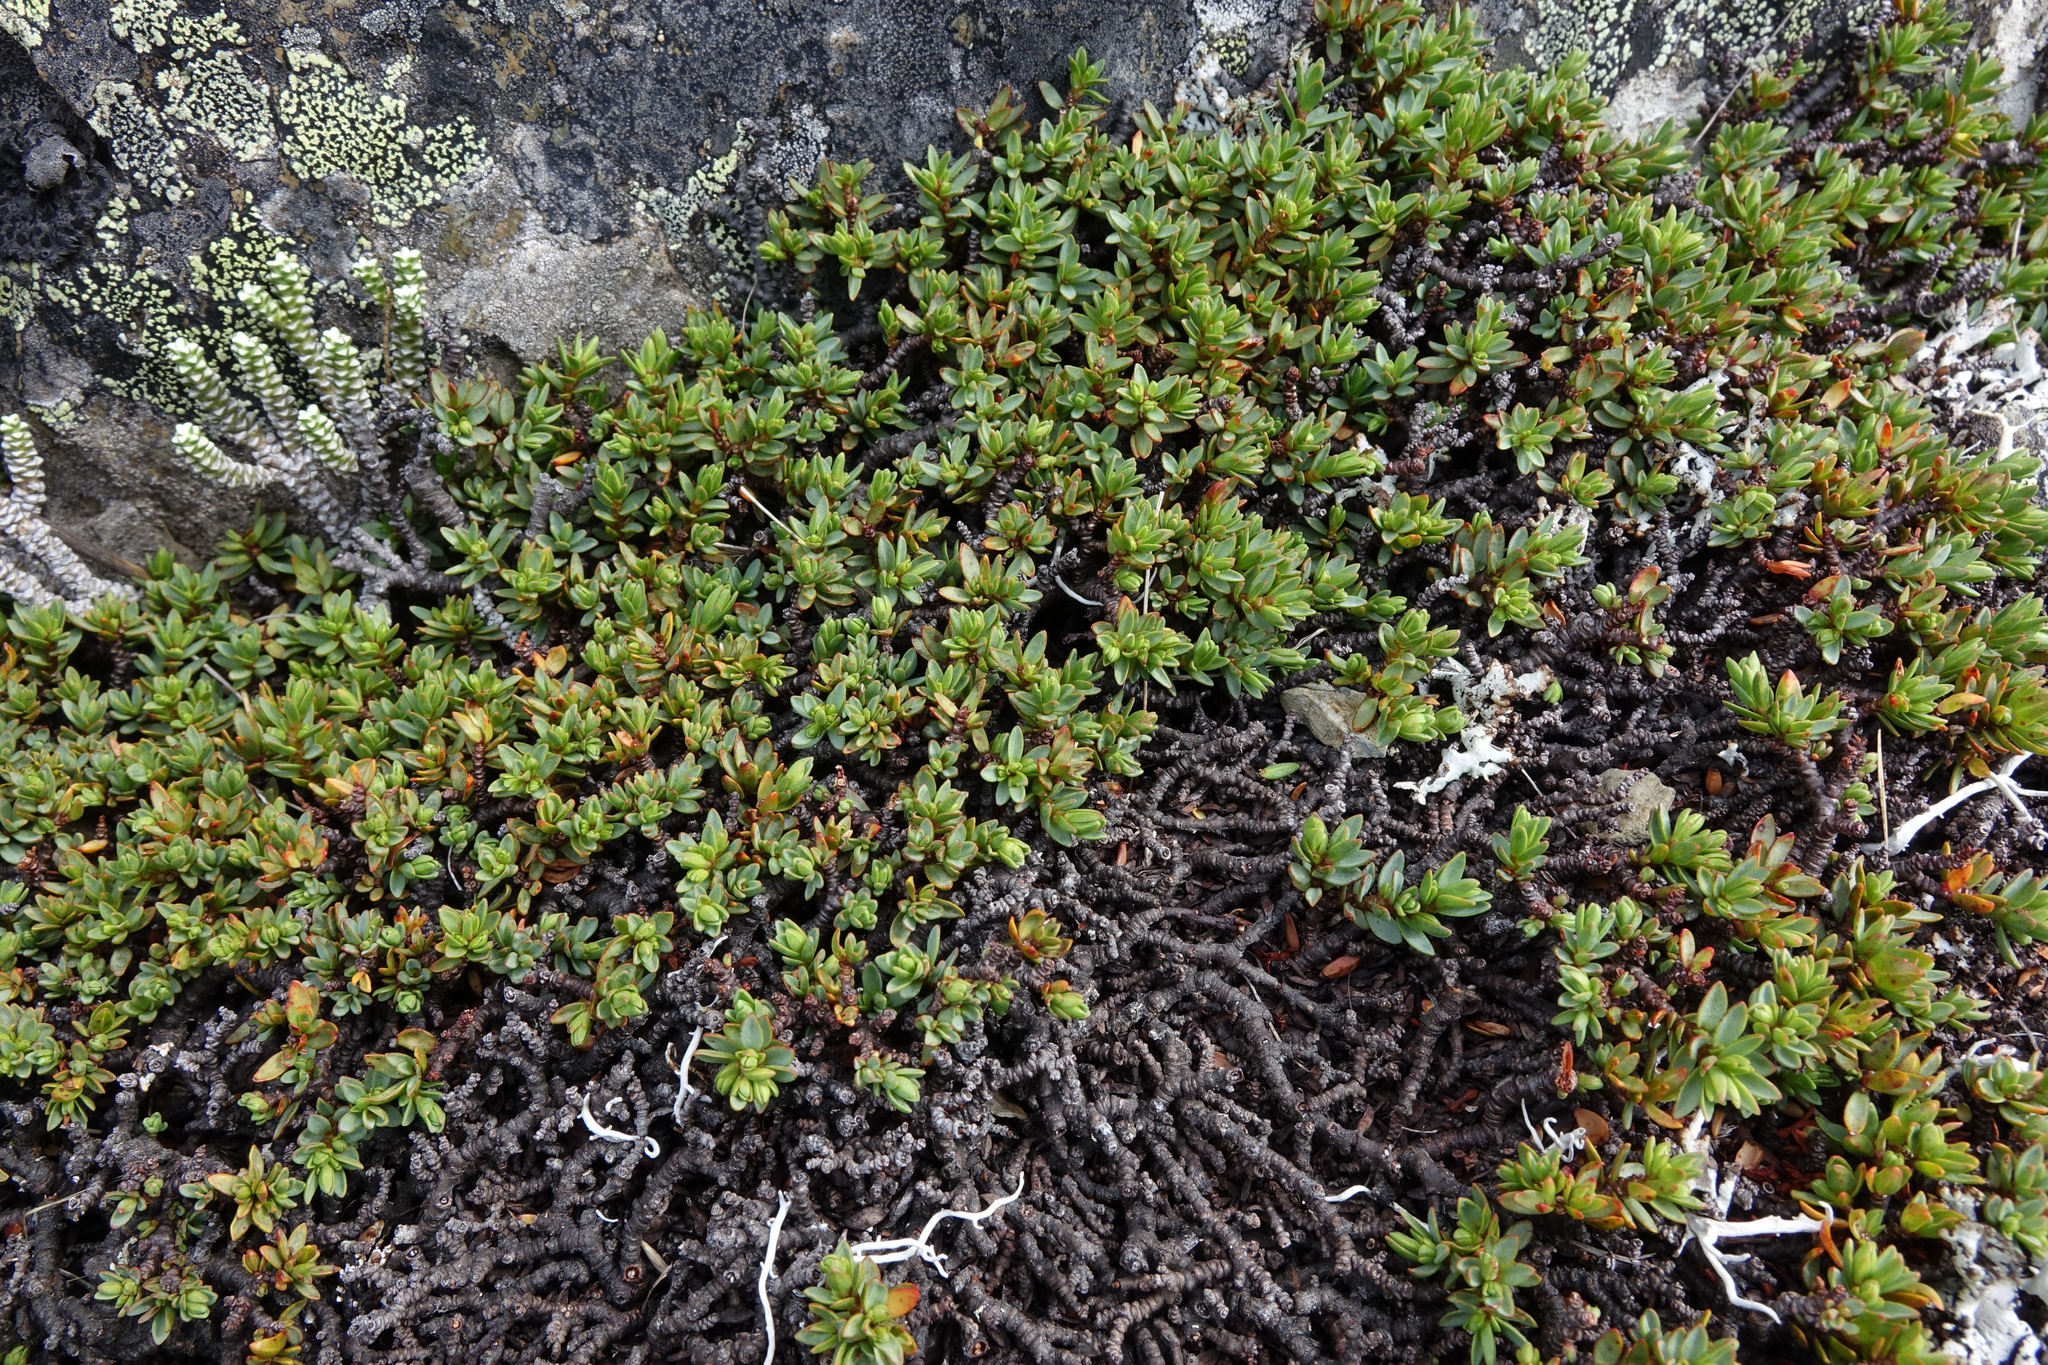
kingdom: Plantae
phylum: Tracheophyta
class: Magnoliopsida
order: Malvales
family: Thymelaeaceae
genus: Pimelea
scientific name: Pimelea notia
